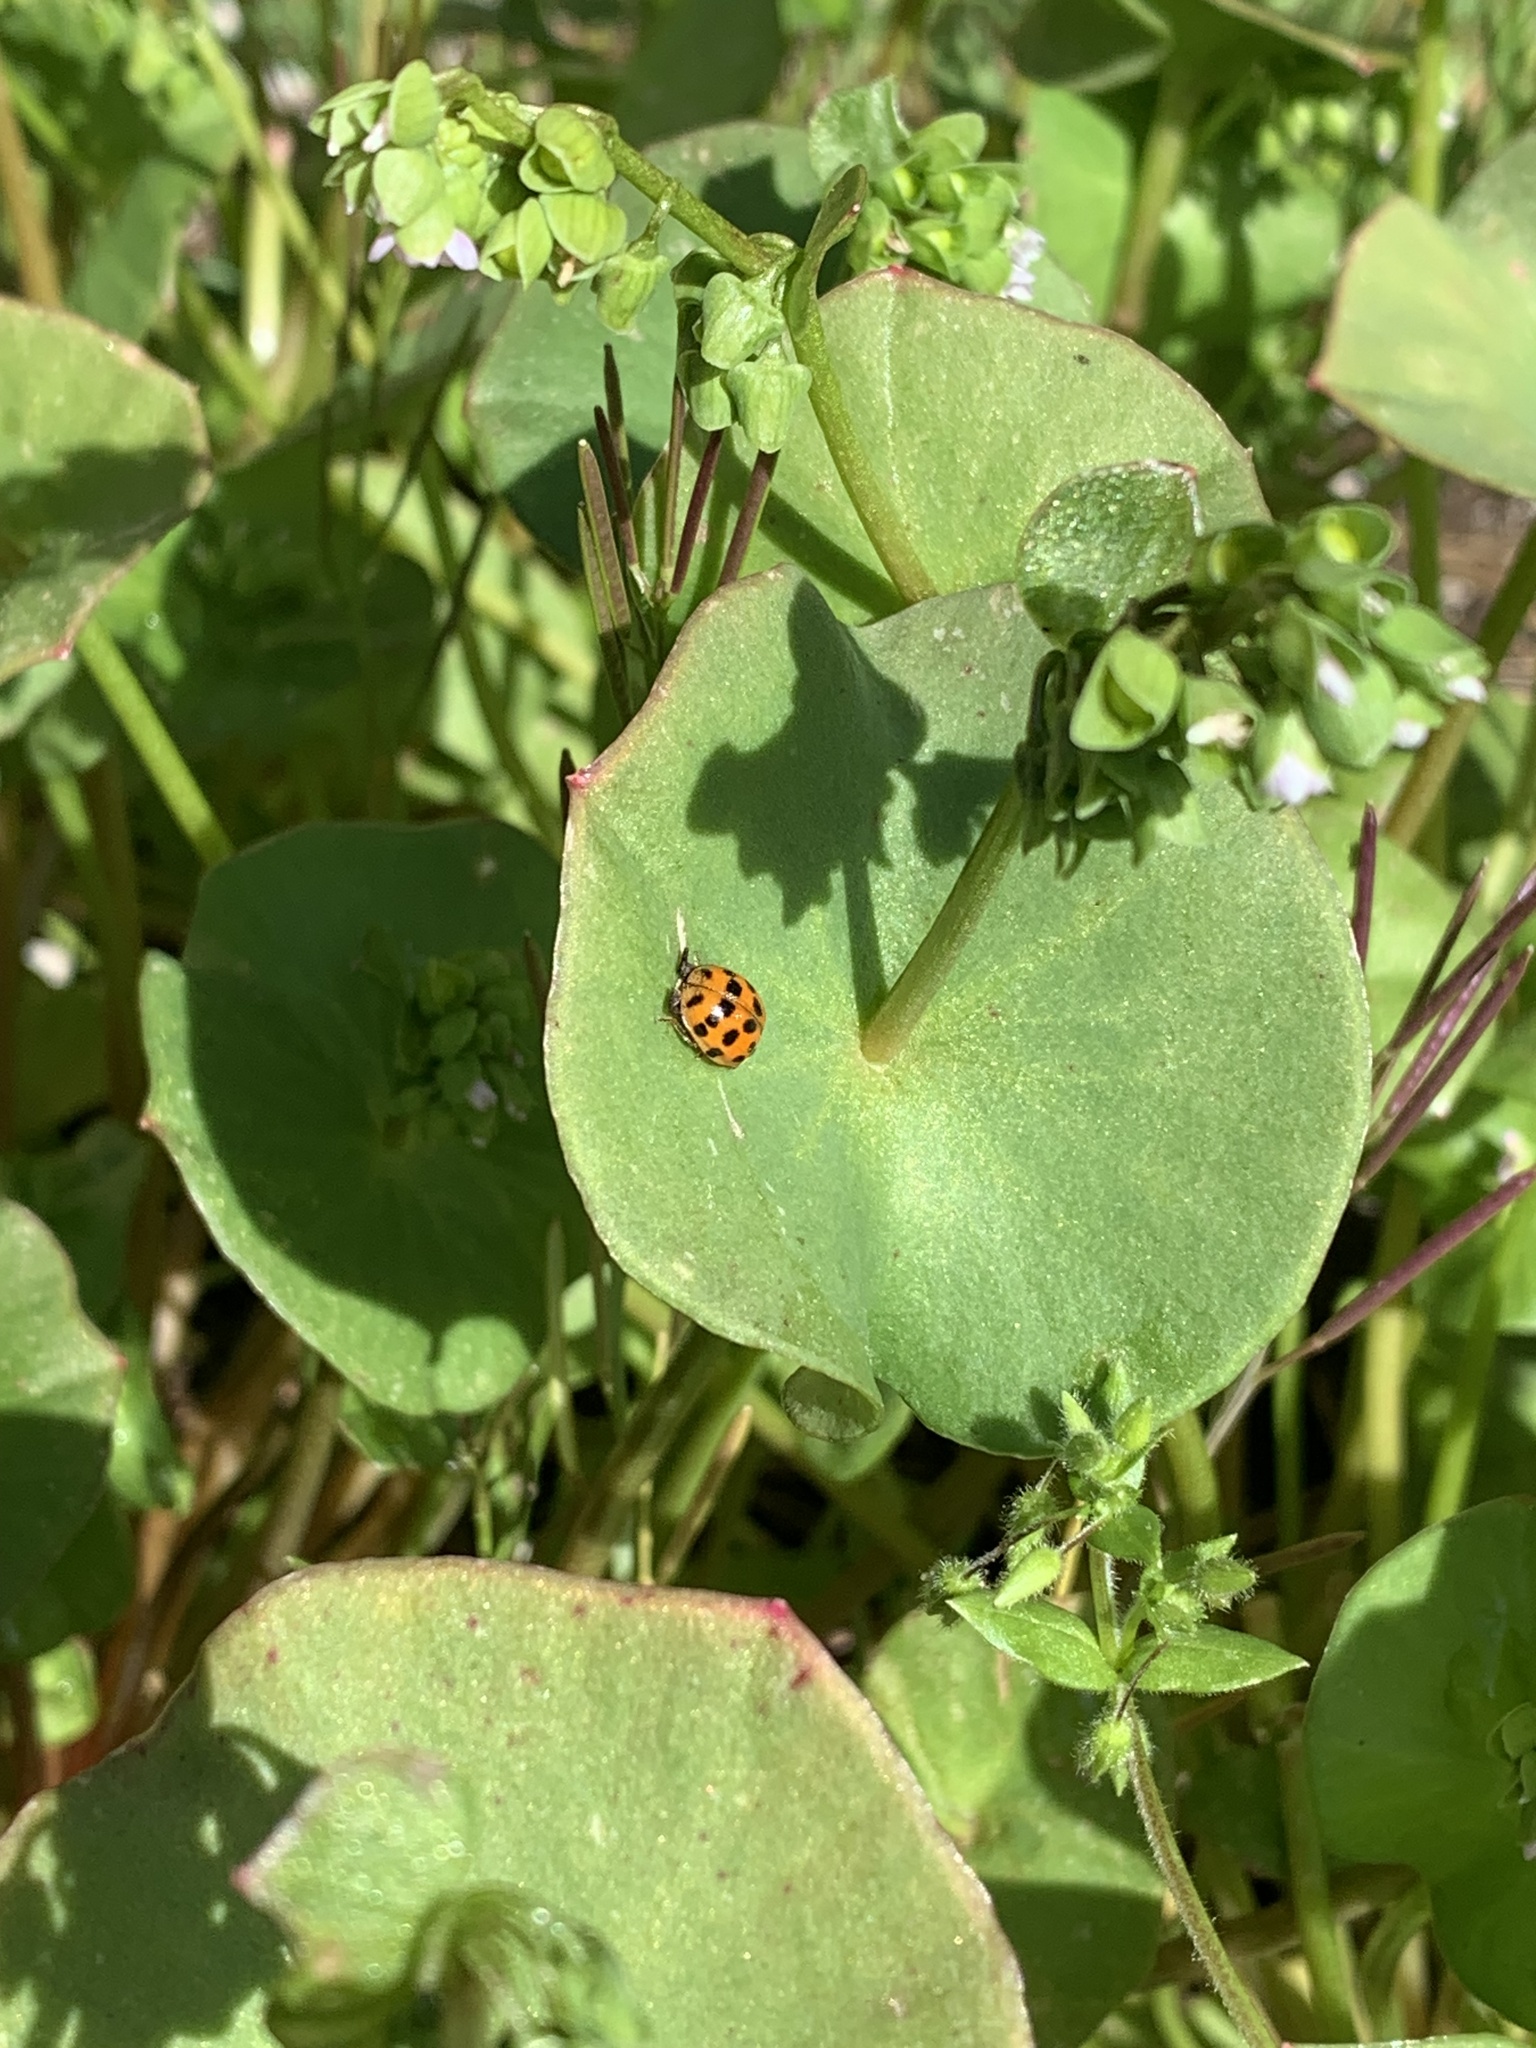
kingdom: Animalia
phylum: Arthropoda
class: Insecta
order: Coleoptera
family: Coccinellidae
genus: Harmonia
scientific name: Harmonia axyridis
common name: Harlequin ladybird
